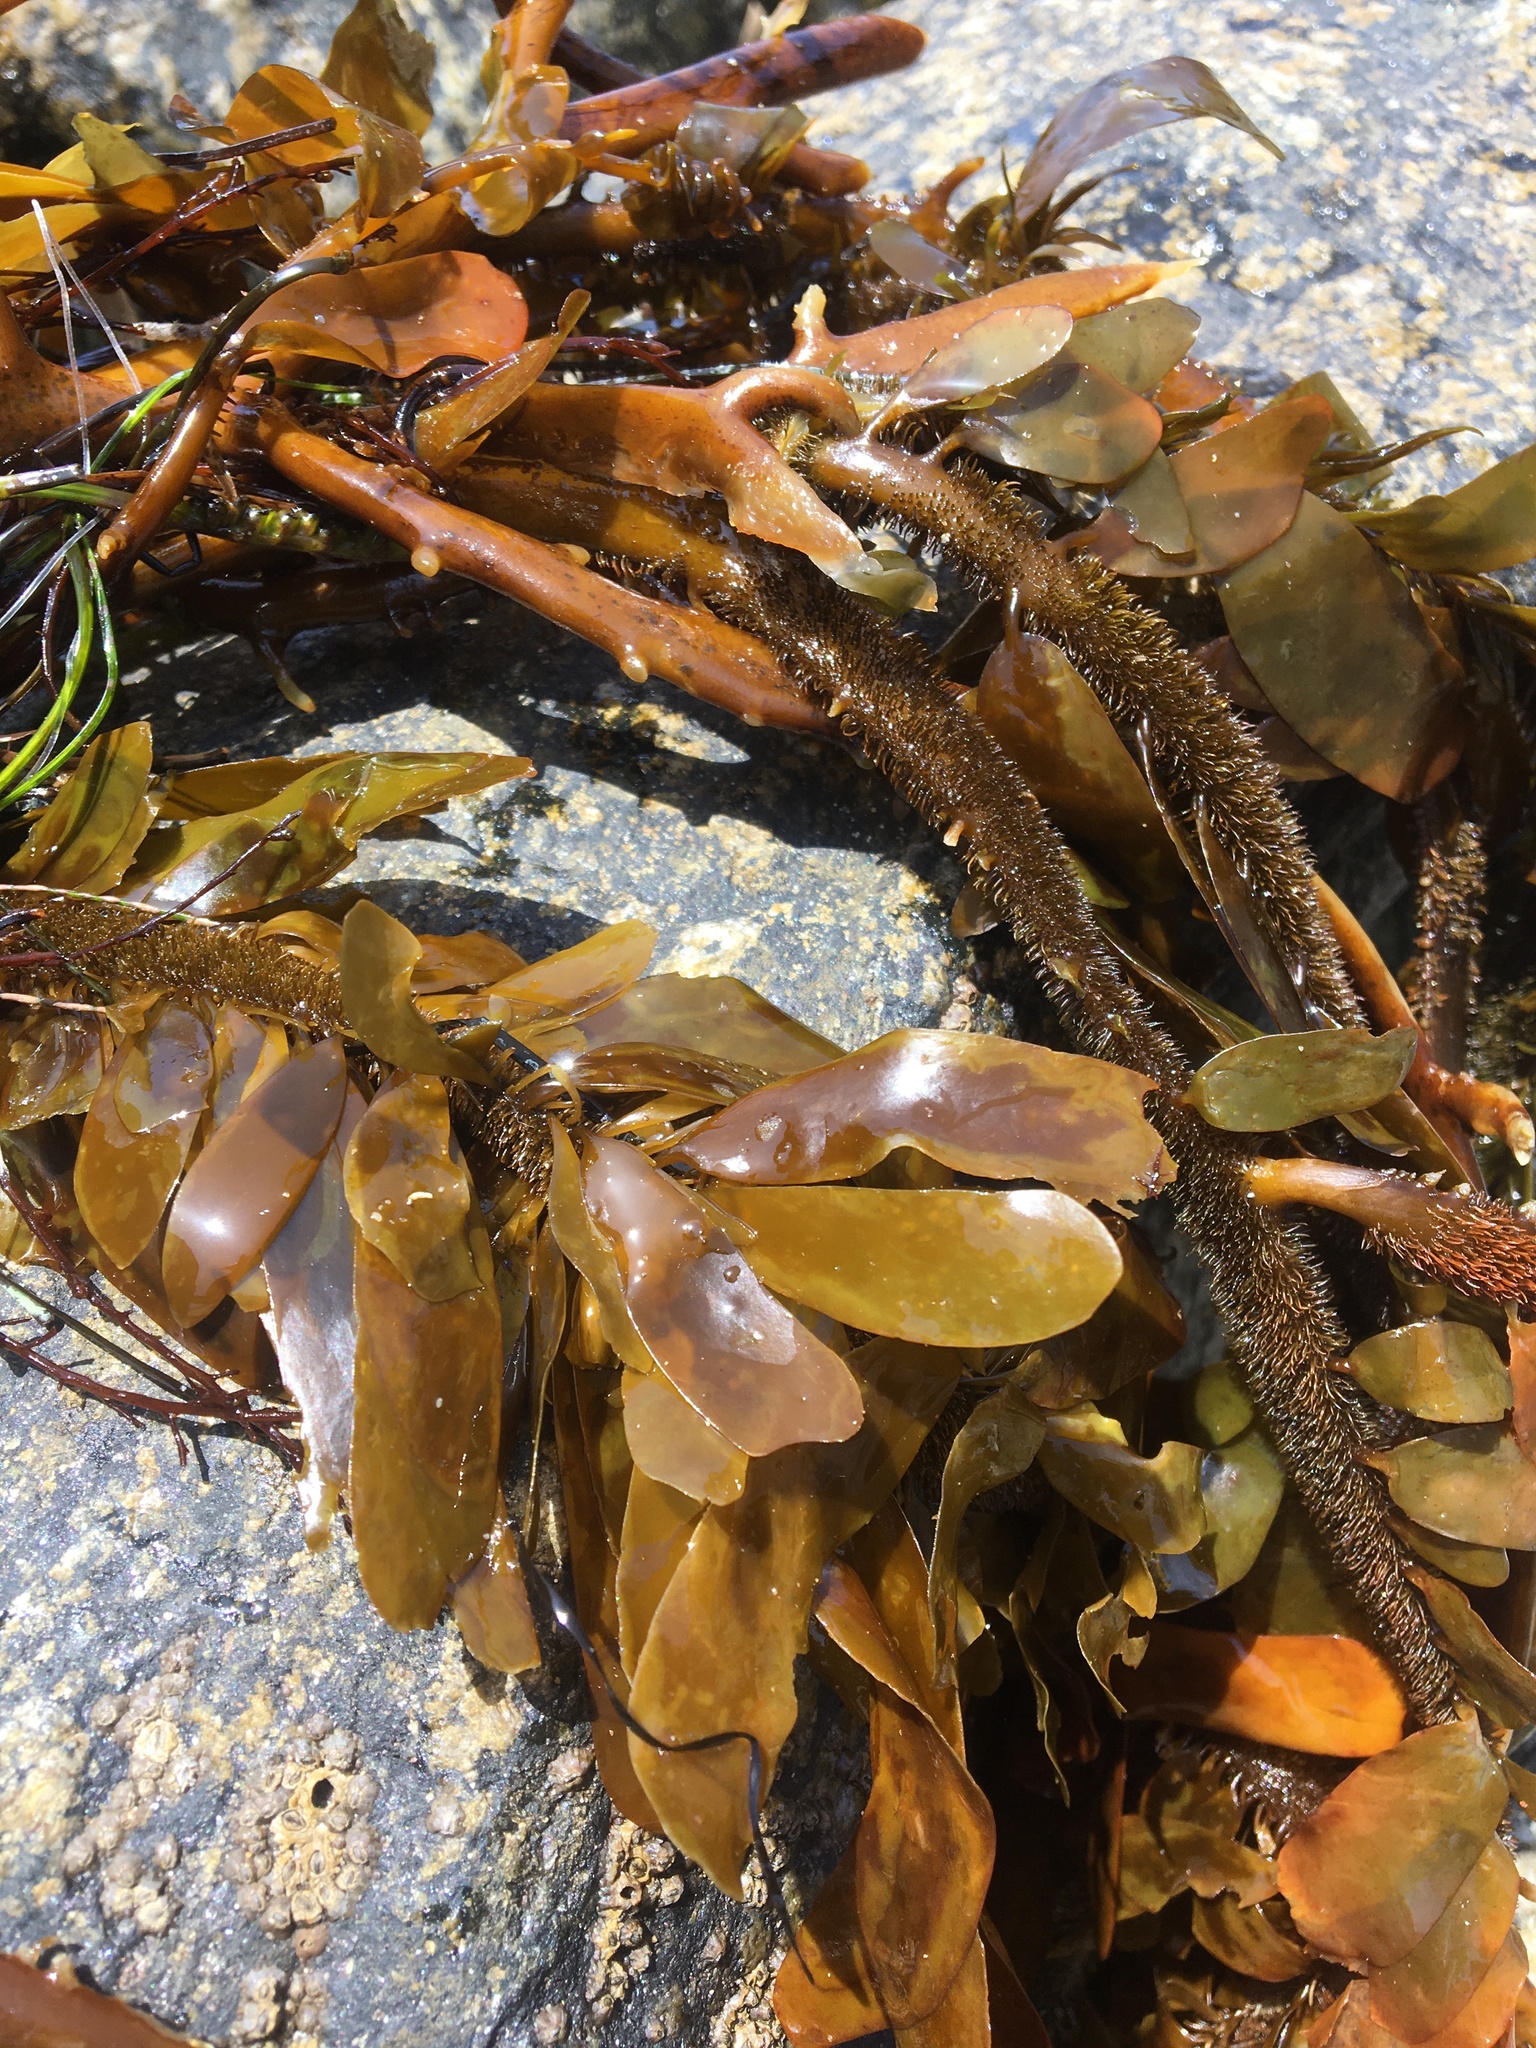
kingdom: Chromista
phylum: Ochrophyta
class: Phaeophyceae
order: Laminariales
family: Lessoniaceae
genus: Egregia
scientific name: Egregia menziesii
